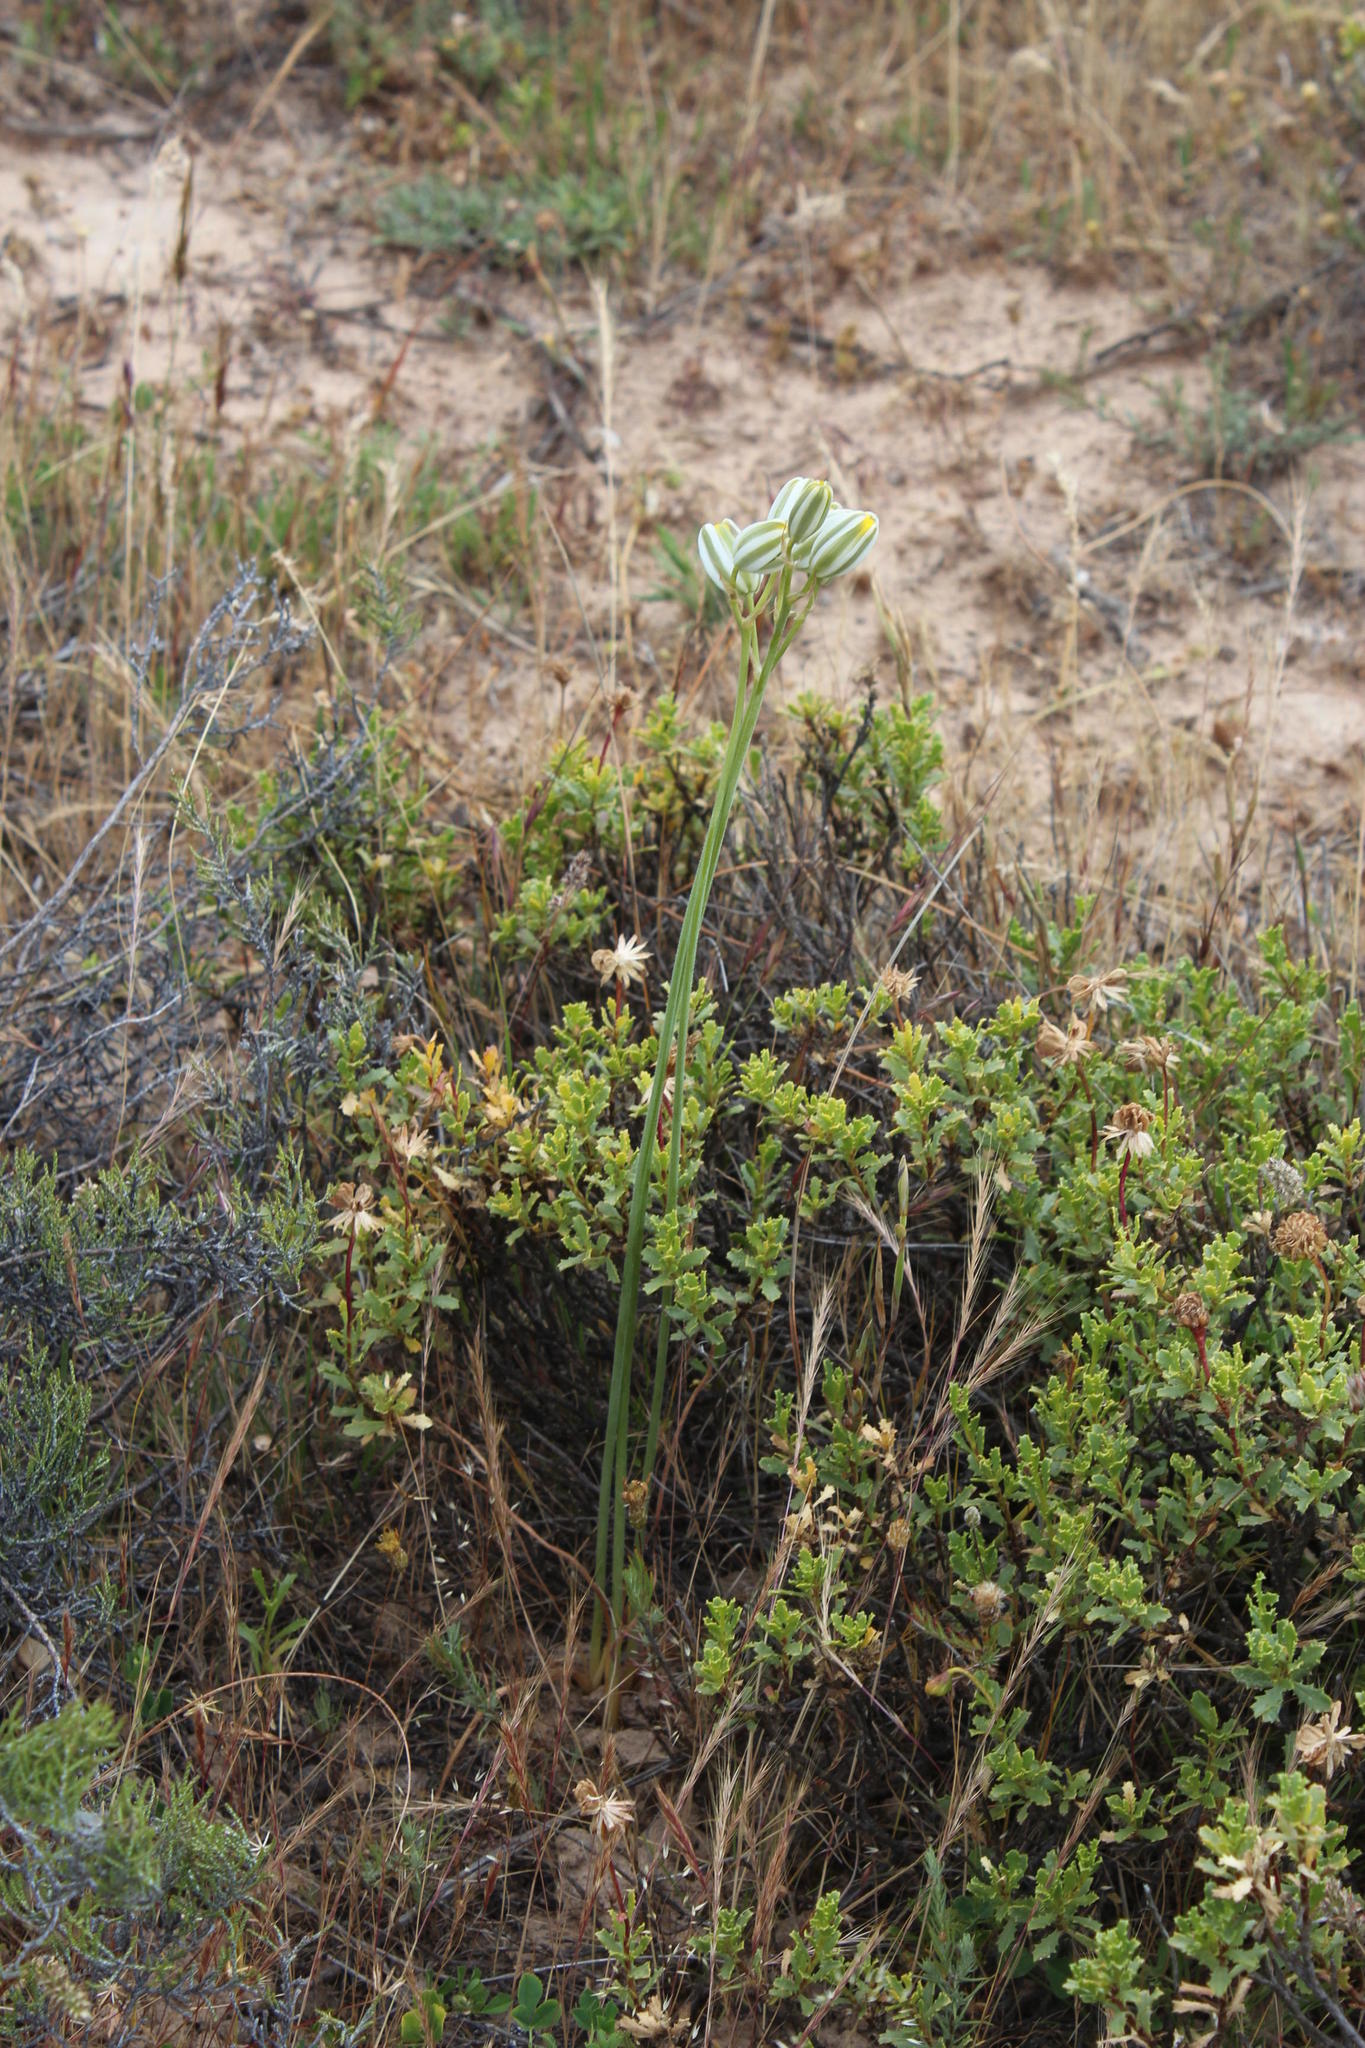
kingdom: Plantae
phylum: Tracheophyta
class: Liliopsida
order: Asparagales
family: Asparagaceae
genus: Albuca
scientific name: Albuca longipes
